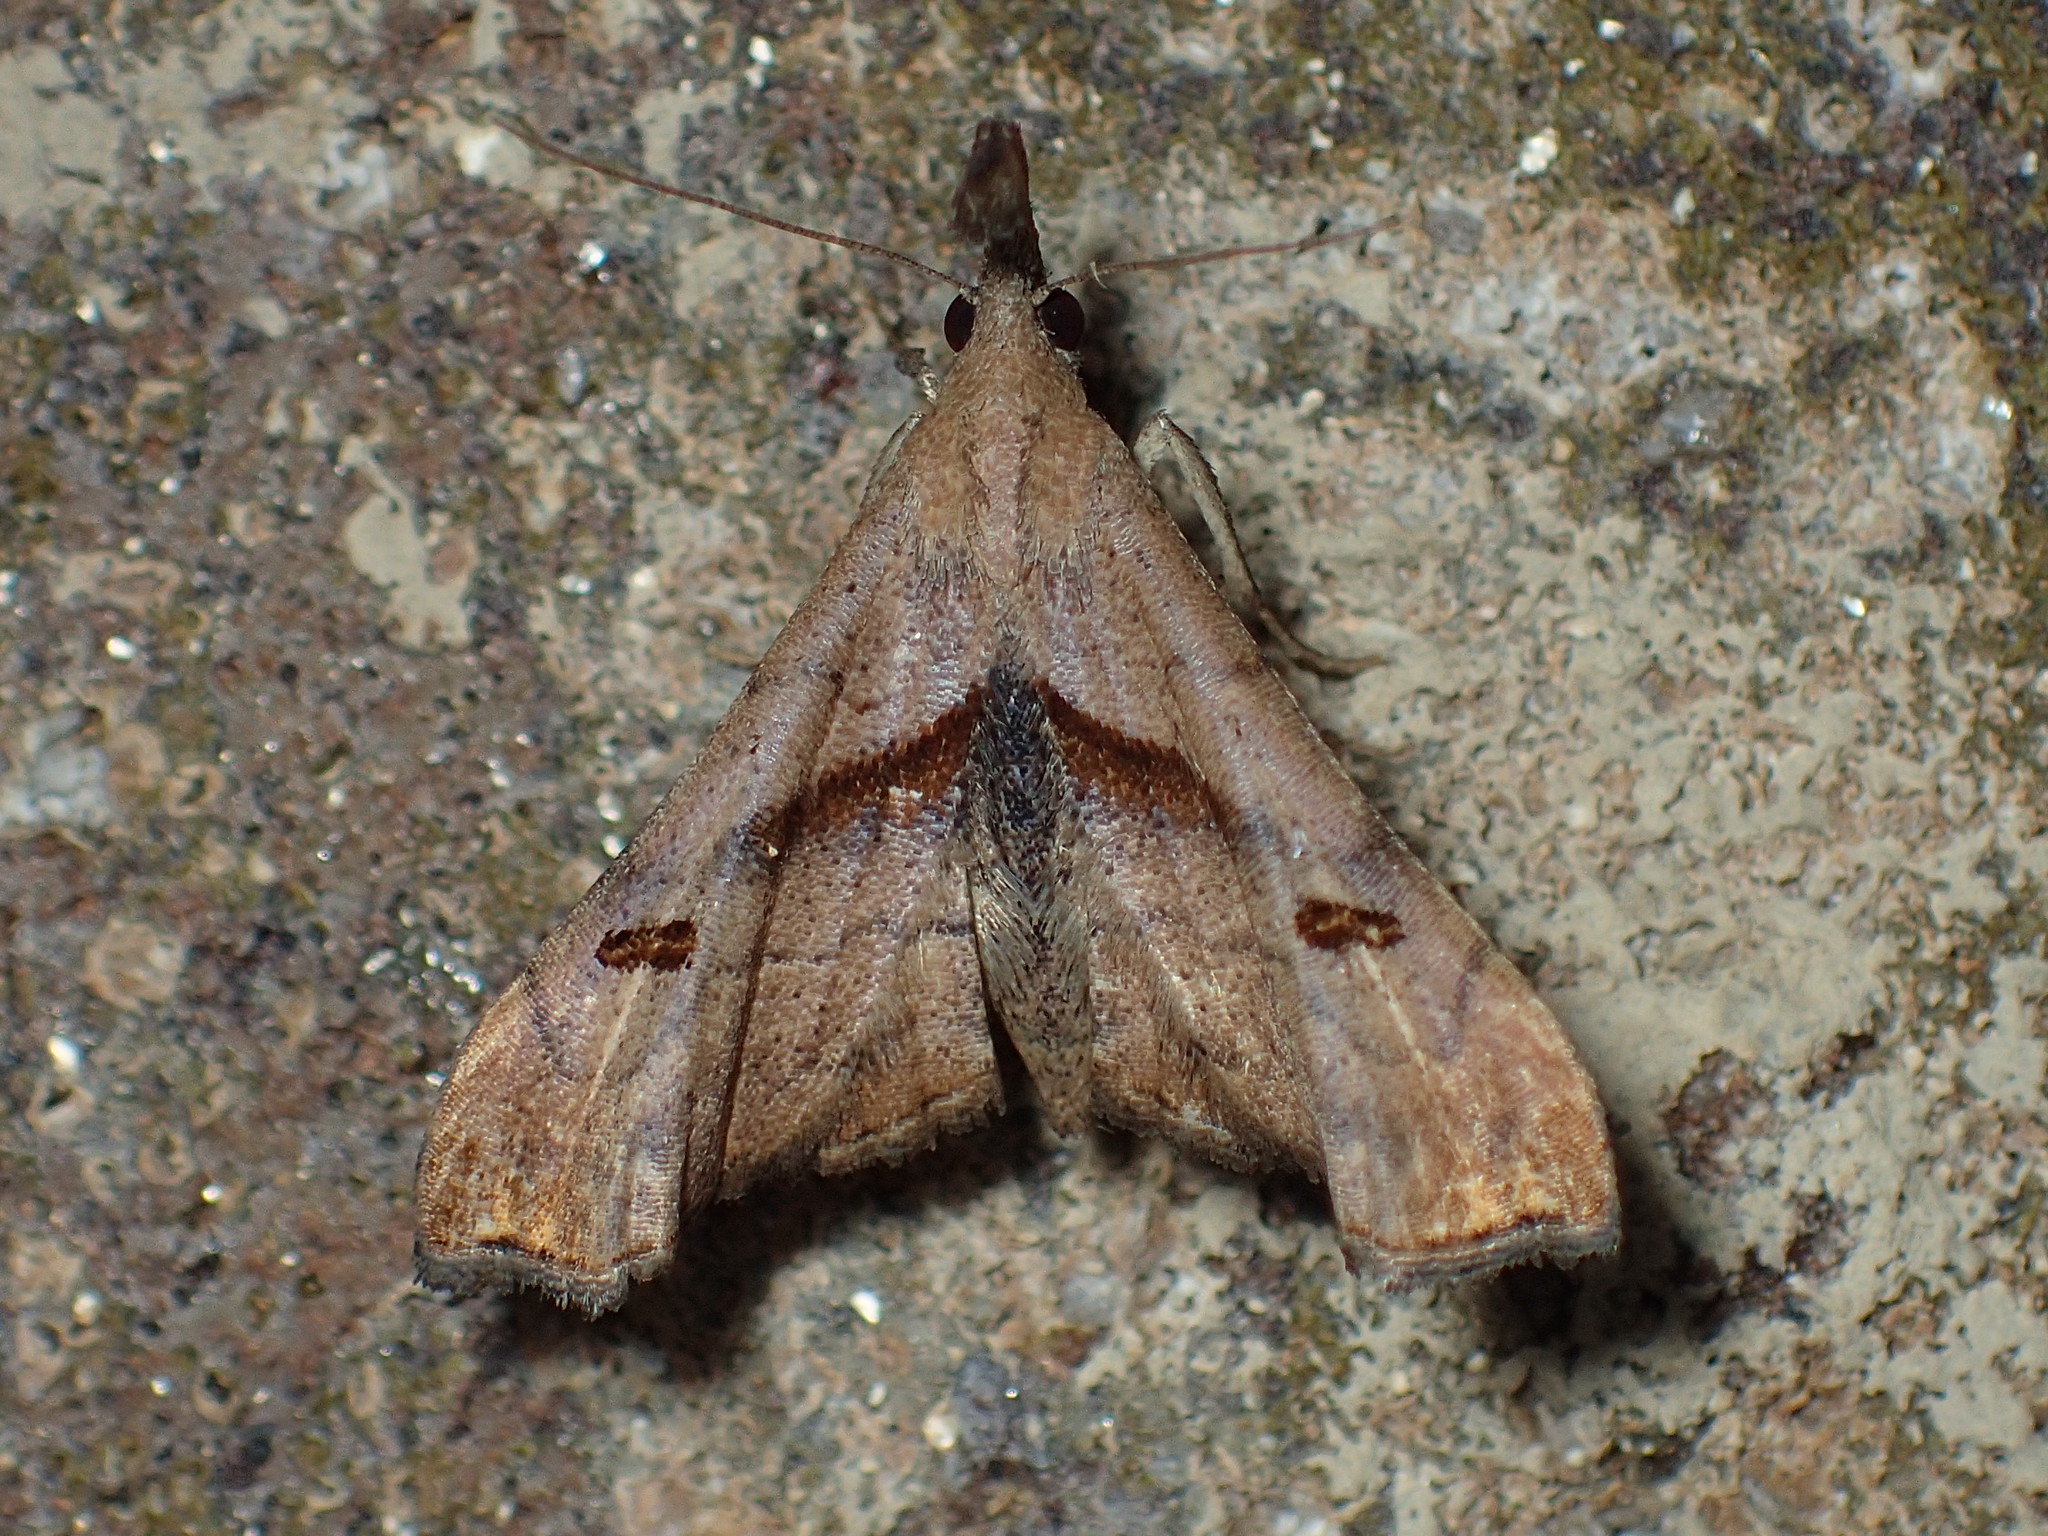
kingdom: Animalia
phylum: Arthropoda
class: Insecta
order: Lepidoptera
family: Erebidae
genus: Palthis
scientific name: Palthis angulalis
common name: Dark-spotted palthis moth
